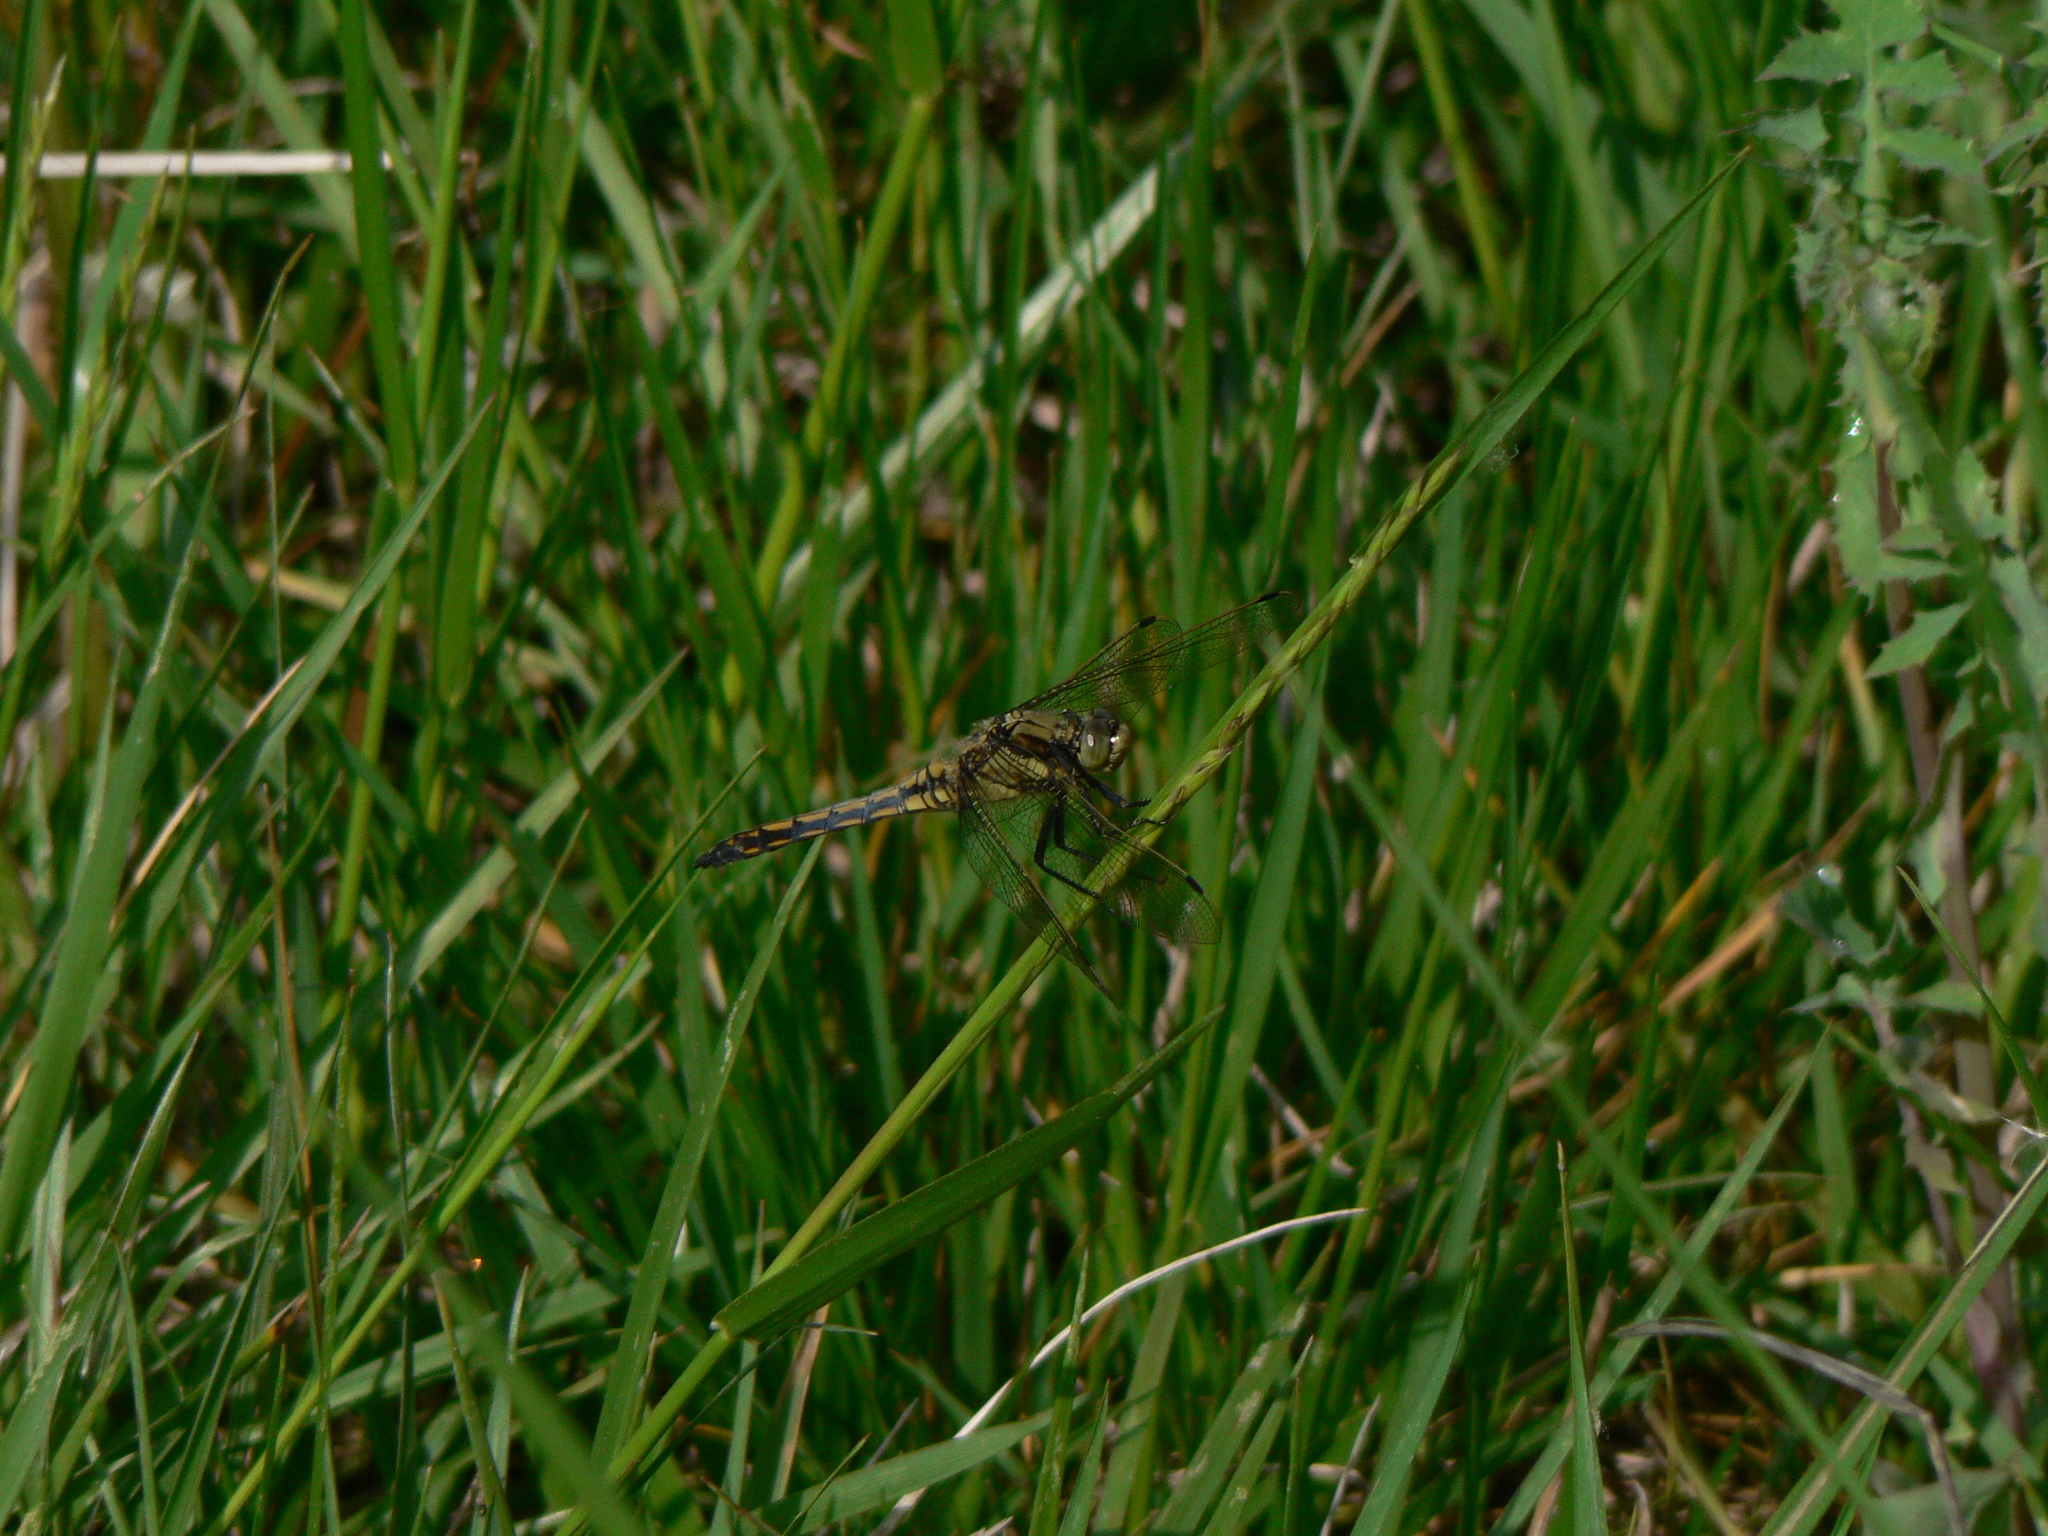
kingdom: Animalia
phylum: Arthropoda
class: Insecta
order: Odonata
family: Libellulidae
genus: Orthetrum
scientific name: Orthetrum cancellatum
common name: Black-tailed skimmer
